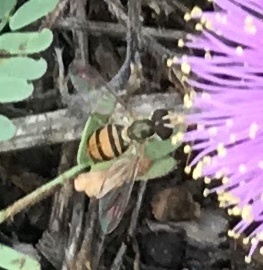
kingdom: Animalia
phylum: Arthropoda
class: Insecta
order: Diptera
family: Syrphidae
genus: Toxomerus
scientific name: Toxomerus marginatus
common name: Syrphid fly
